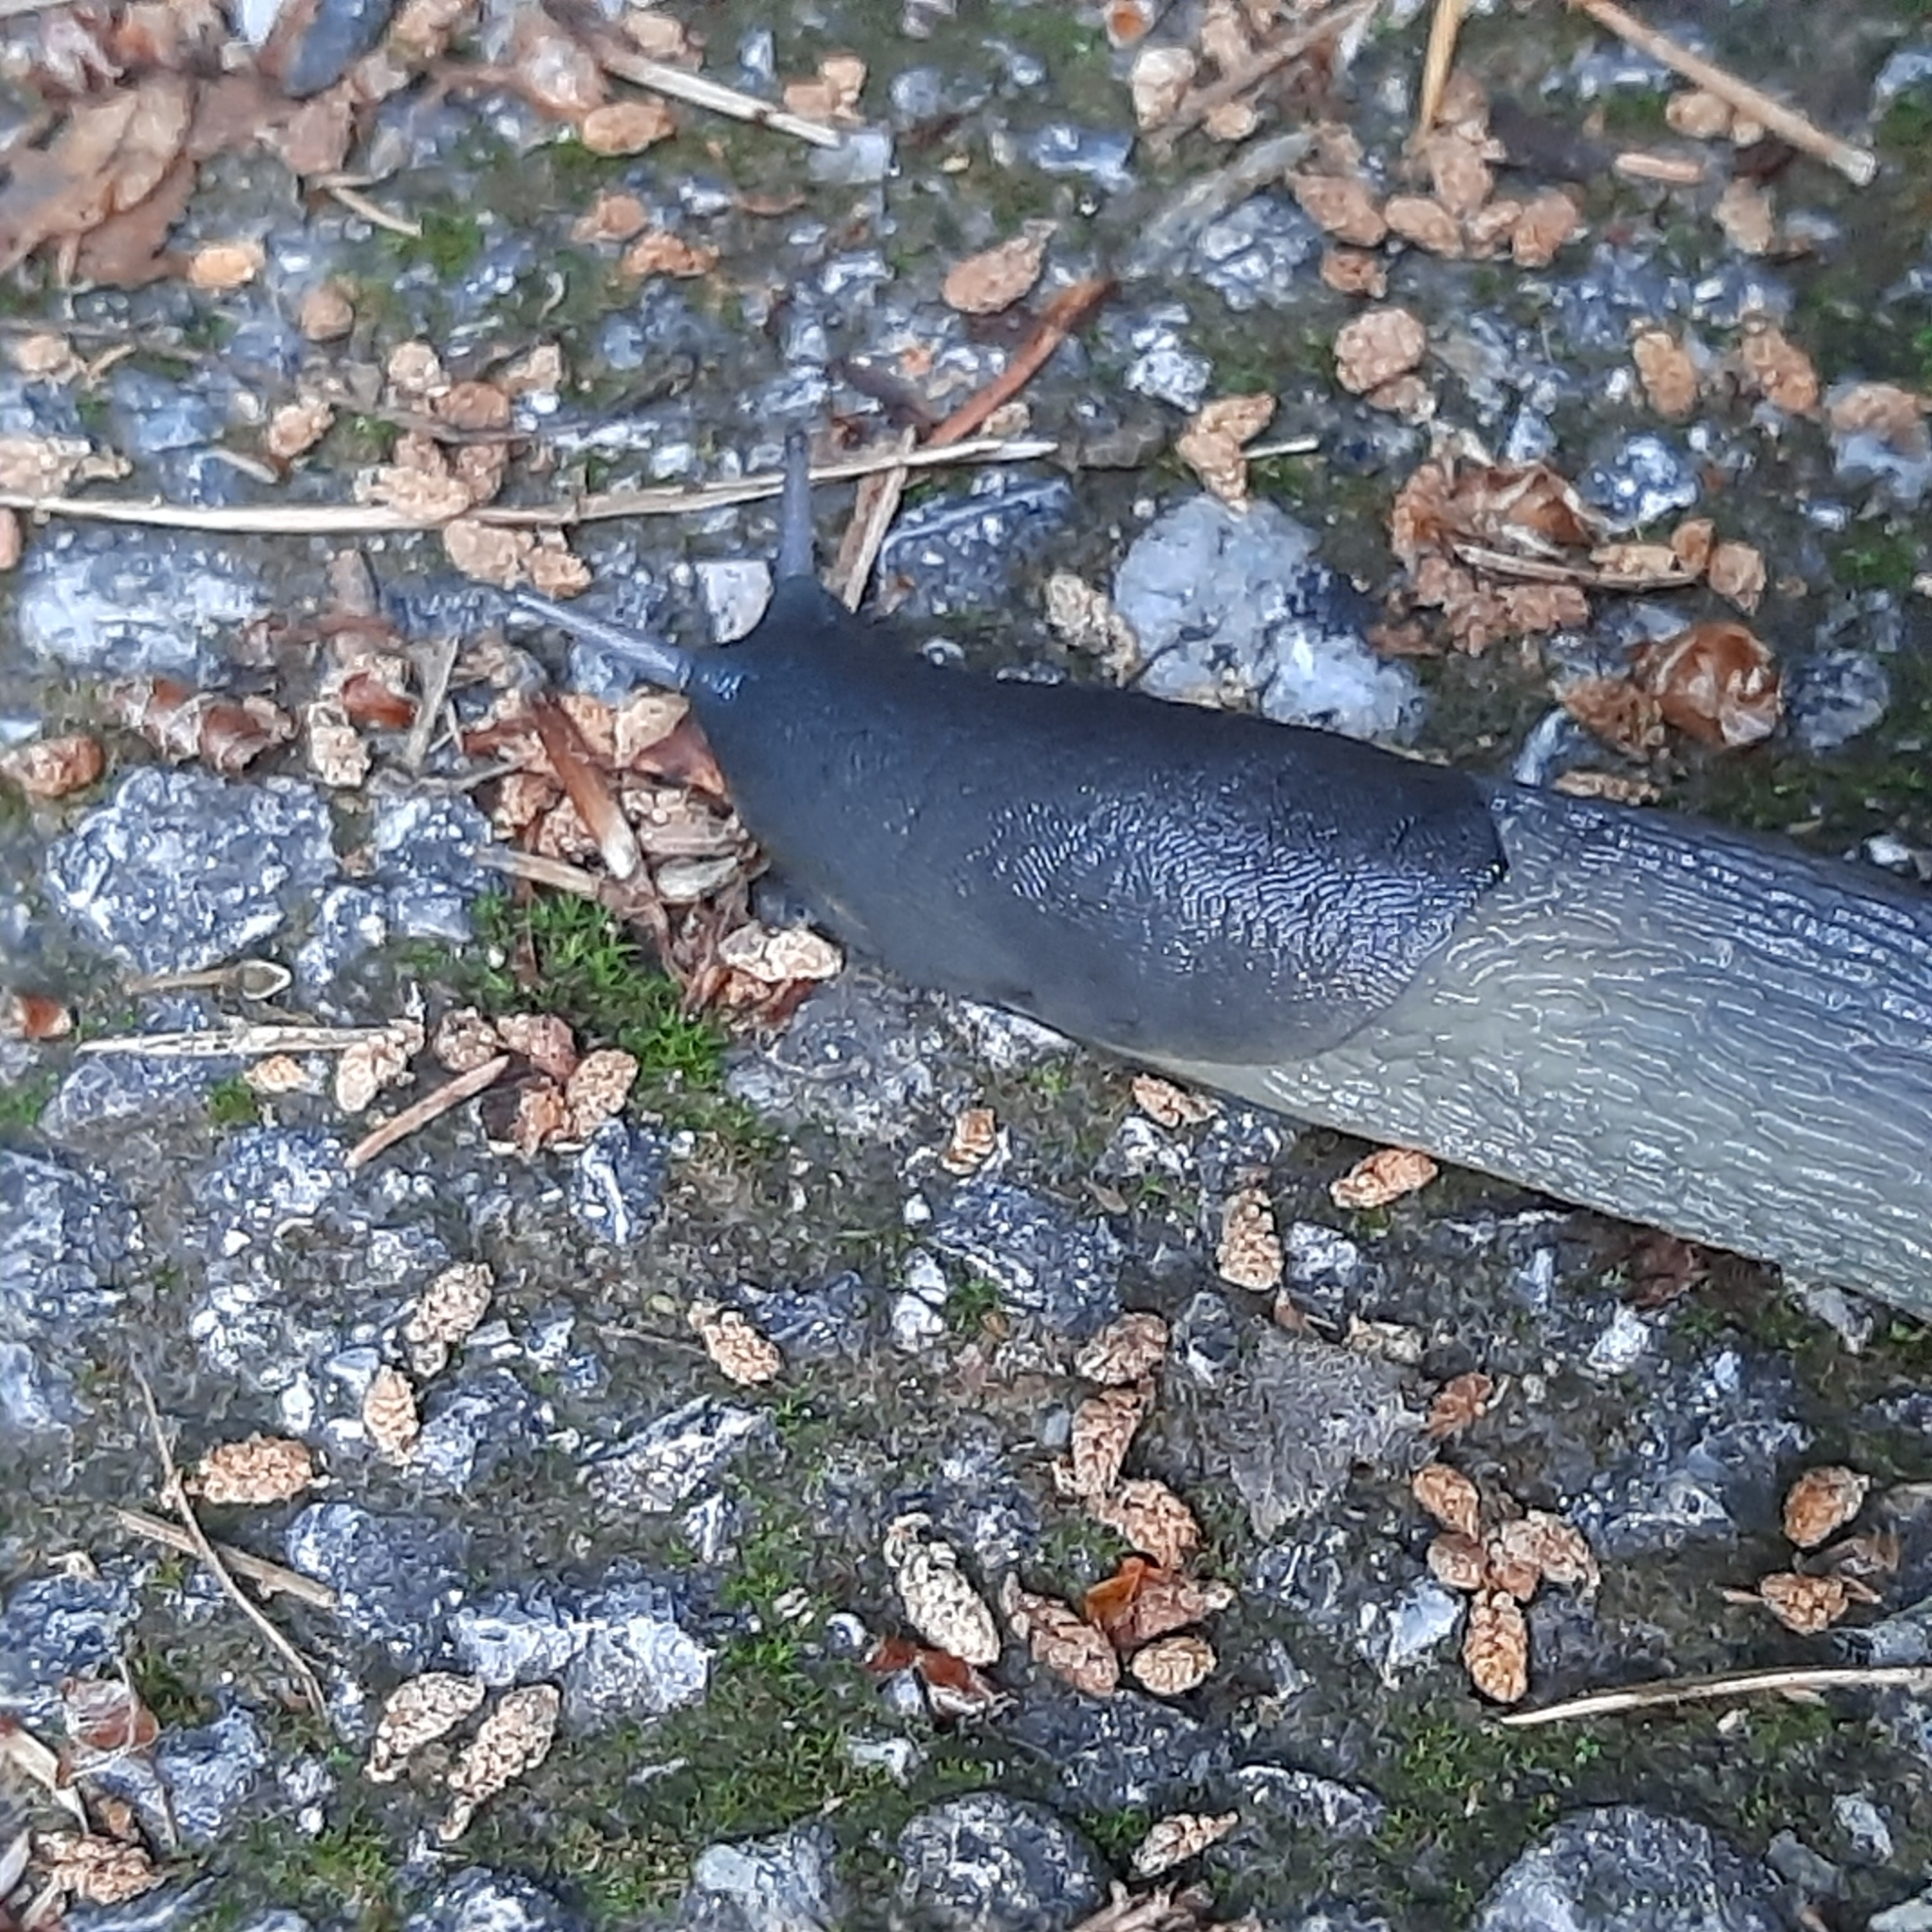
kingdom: Animalia
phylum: Mollusca
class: Gastropoda
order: Stylommatophora
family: Limacidae
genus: Limax
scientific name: Limax cinereoniger
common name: Ash-black slug
